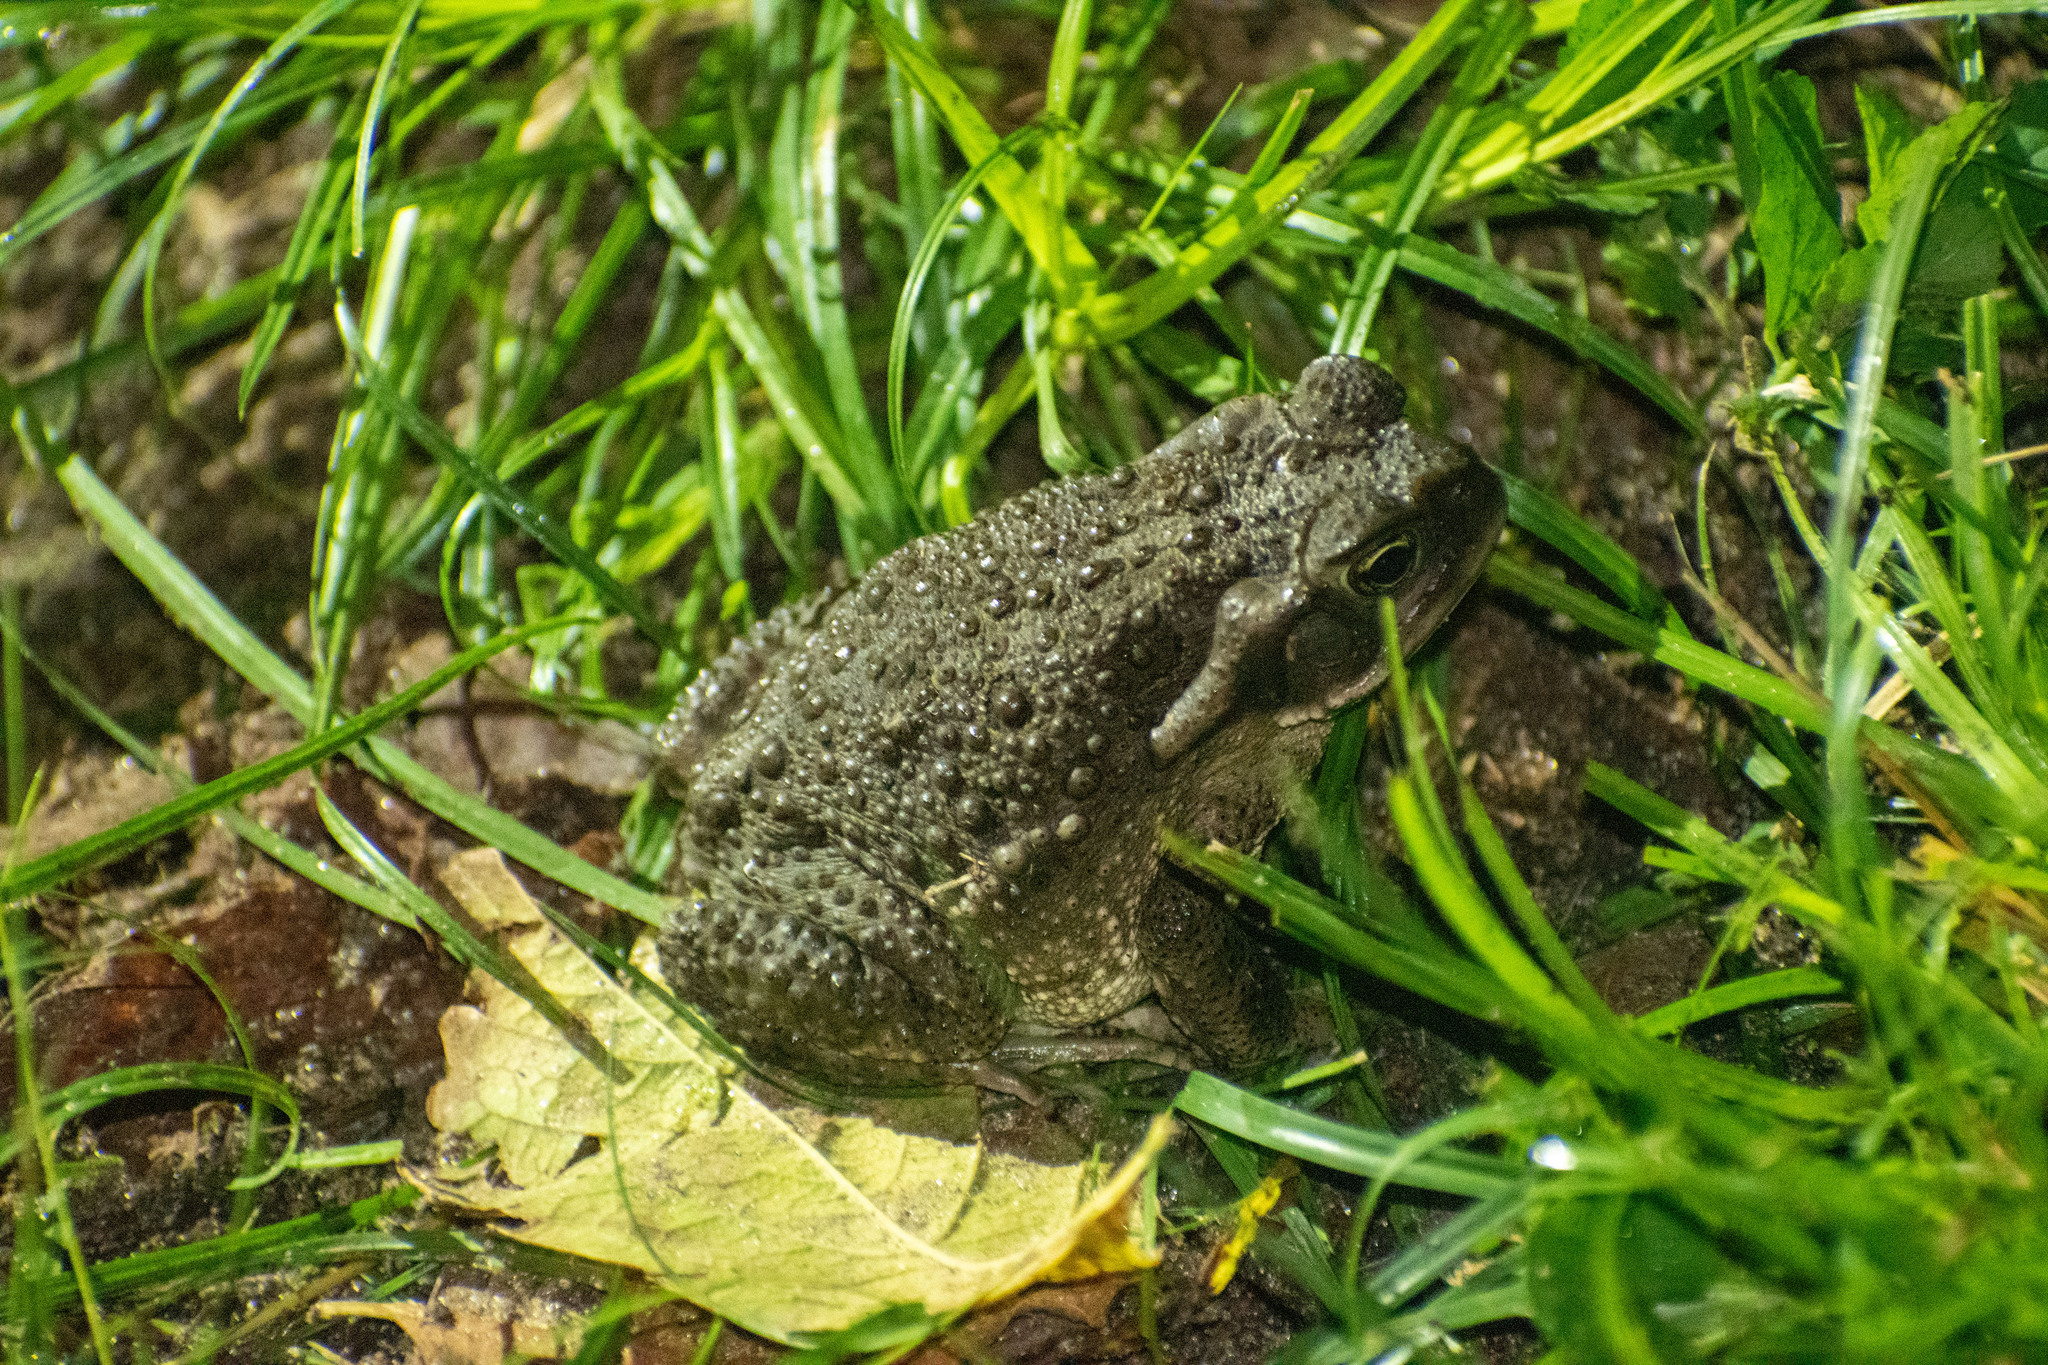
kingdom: Animalia
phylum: Chordata
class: Amphibia
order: Anura
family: Bufonidae
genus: Rhinella
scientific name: Rhinella arenarum
